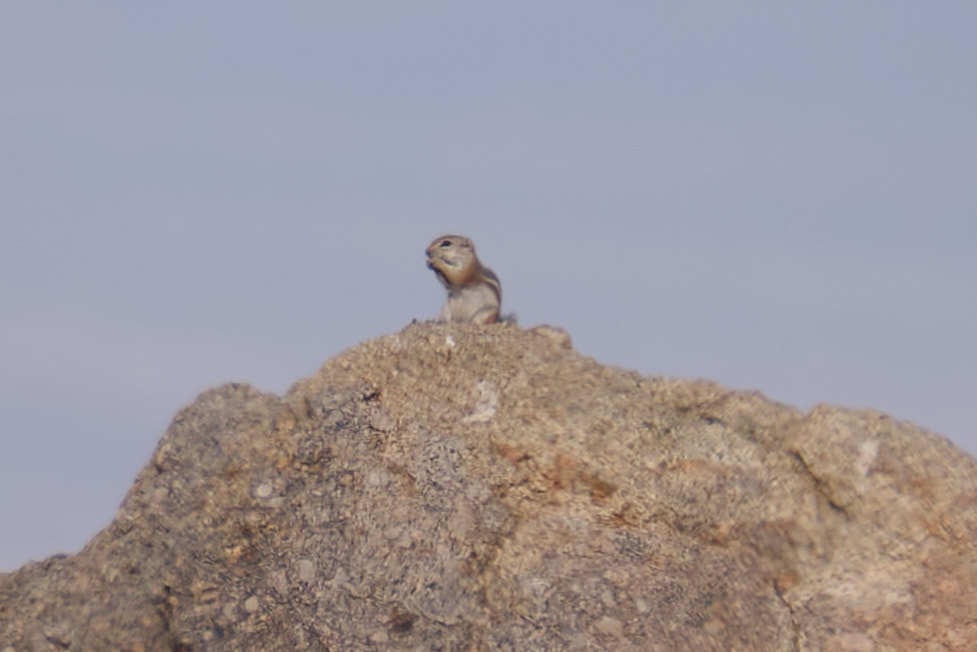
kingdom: Animalia
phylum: Chordata
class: Mammalia
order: Rodentia
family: Sciuridae
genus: Ammospermophilus
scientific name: Ammospermophilus leucurus
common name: White-tailed antelope squirrel
